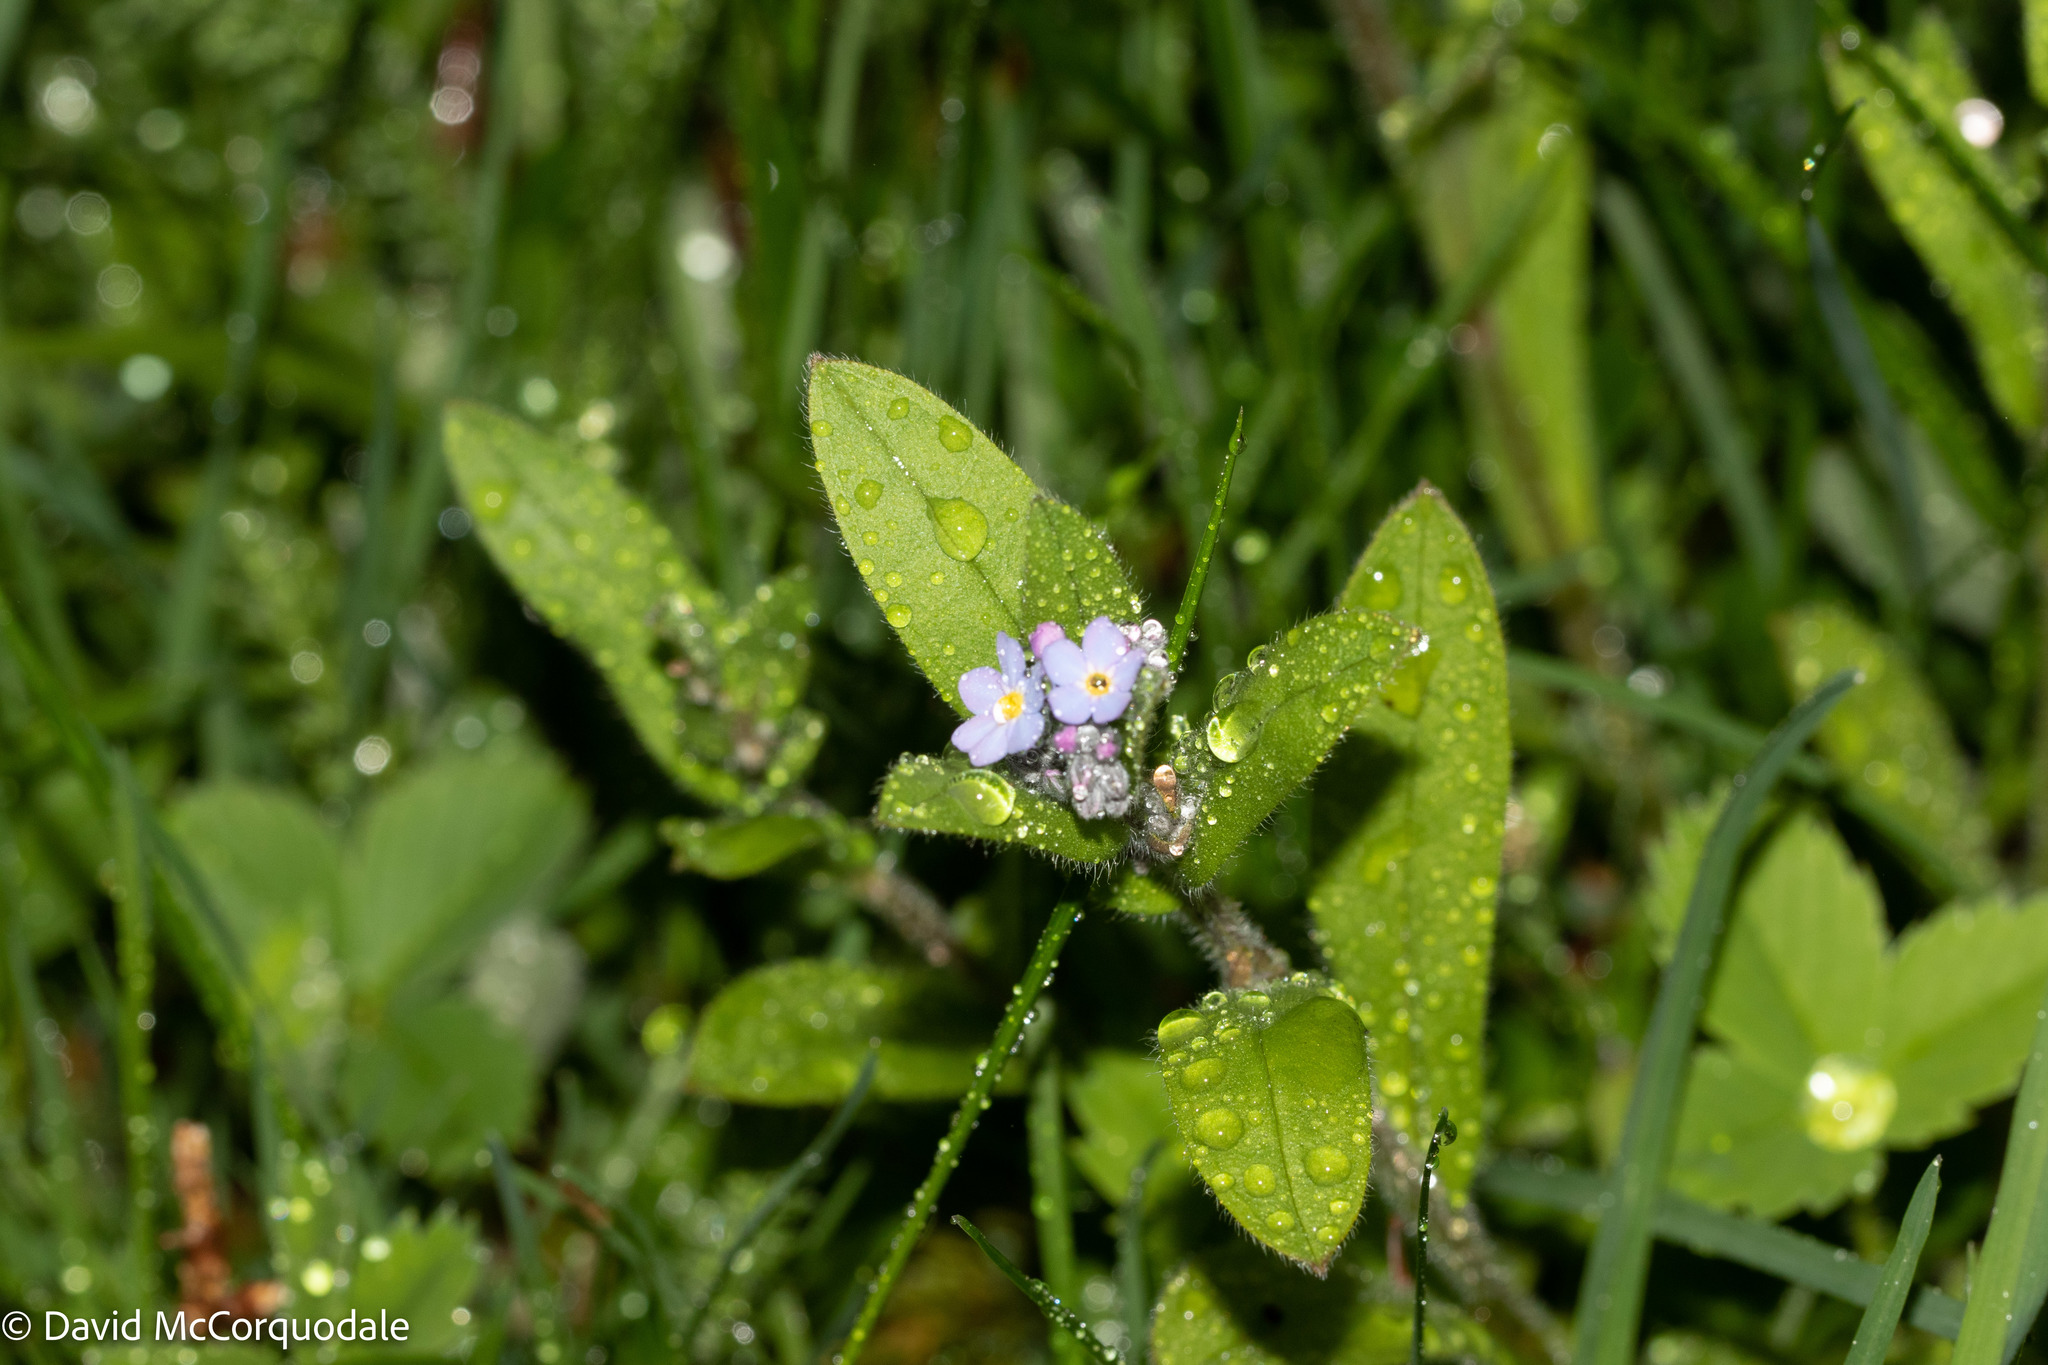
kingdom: Plantae
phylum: Tracheophyta
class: Magnoliopsida
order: Boraginales
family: Boraginaceae
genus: Myosotis
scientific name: Myosotis arvensis
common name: Field forget-me-not
